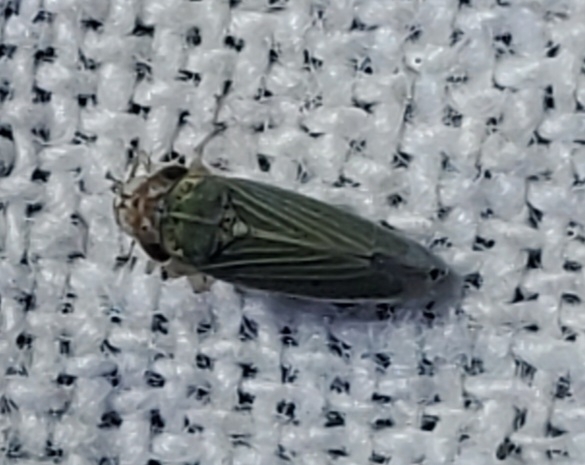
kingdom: Animalia
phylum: Arthropoda
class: Insecta
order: Hemiptera
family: Cicadellidae
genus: Xyphon
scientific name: Xyphon reticulatum
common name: Planthopper
